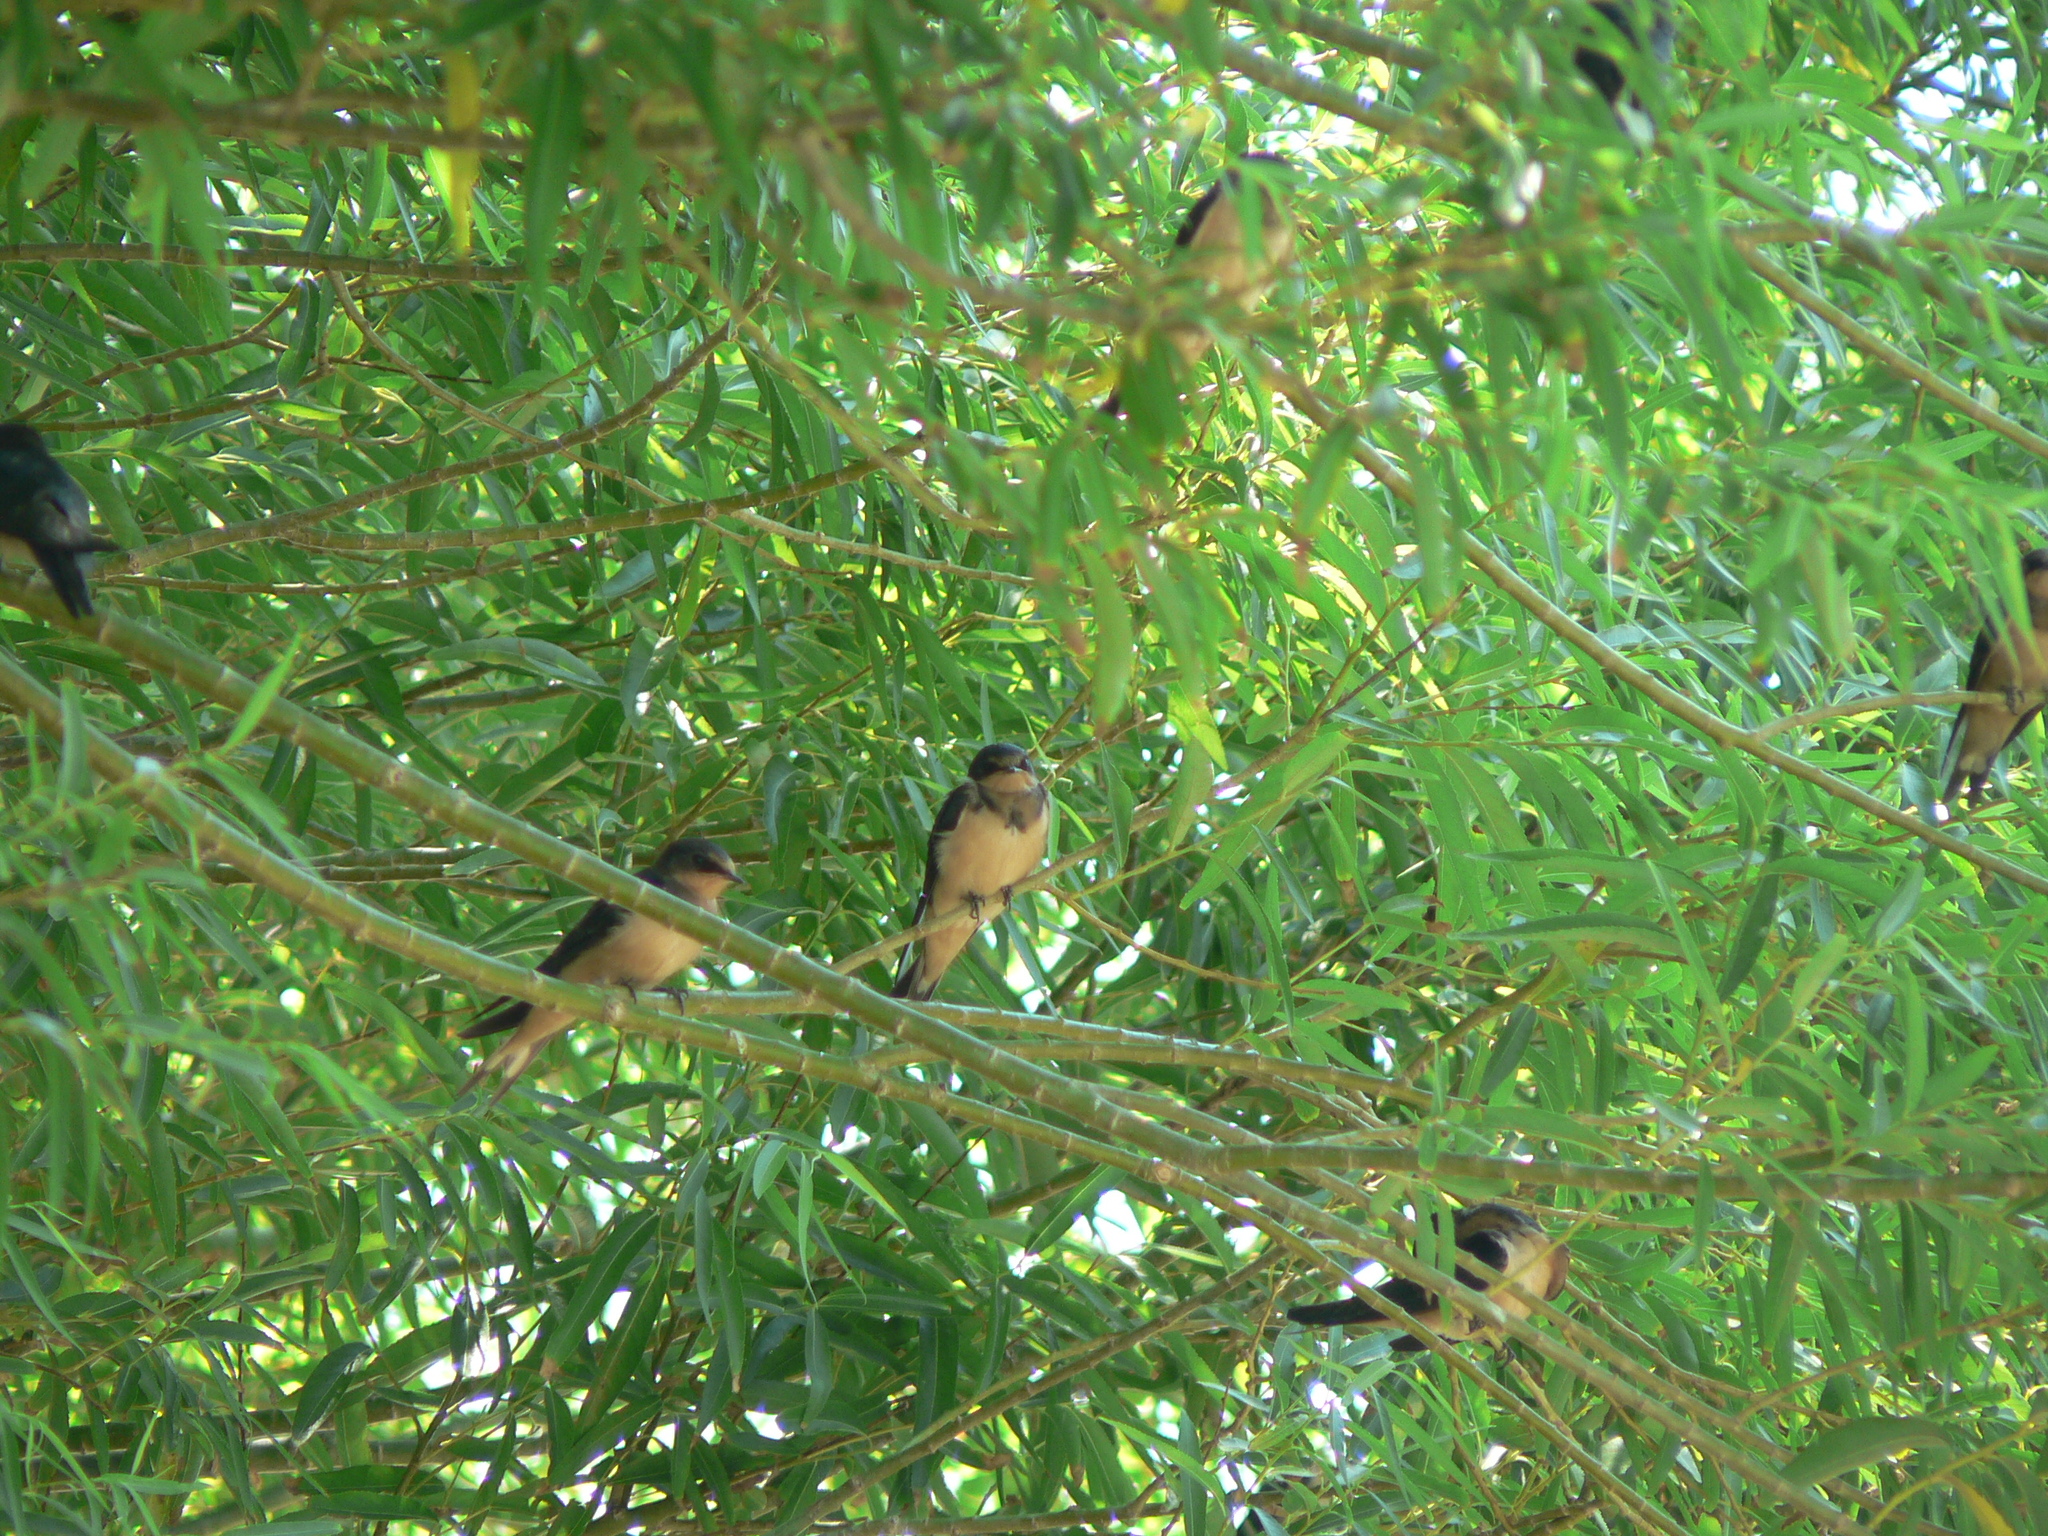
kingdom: Animalia
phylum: Chordata
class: Aves
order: Passeriformes
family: Hirundinidae
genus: Hirundo
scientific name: Hirundo rustica
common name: Barn swallow
